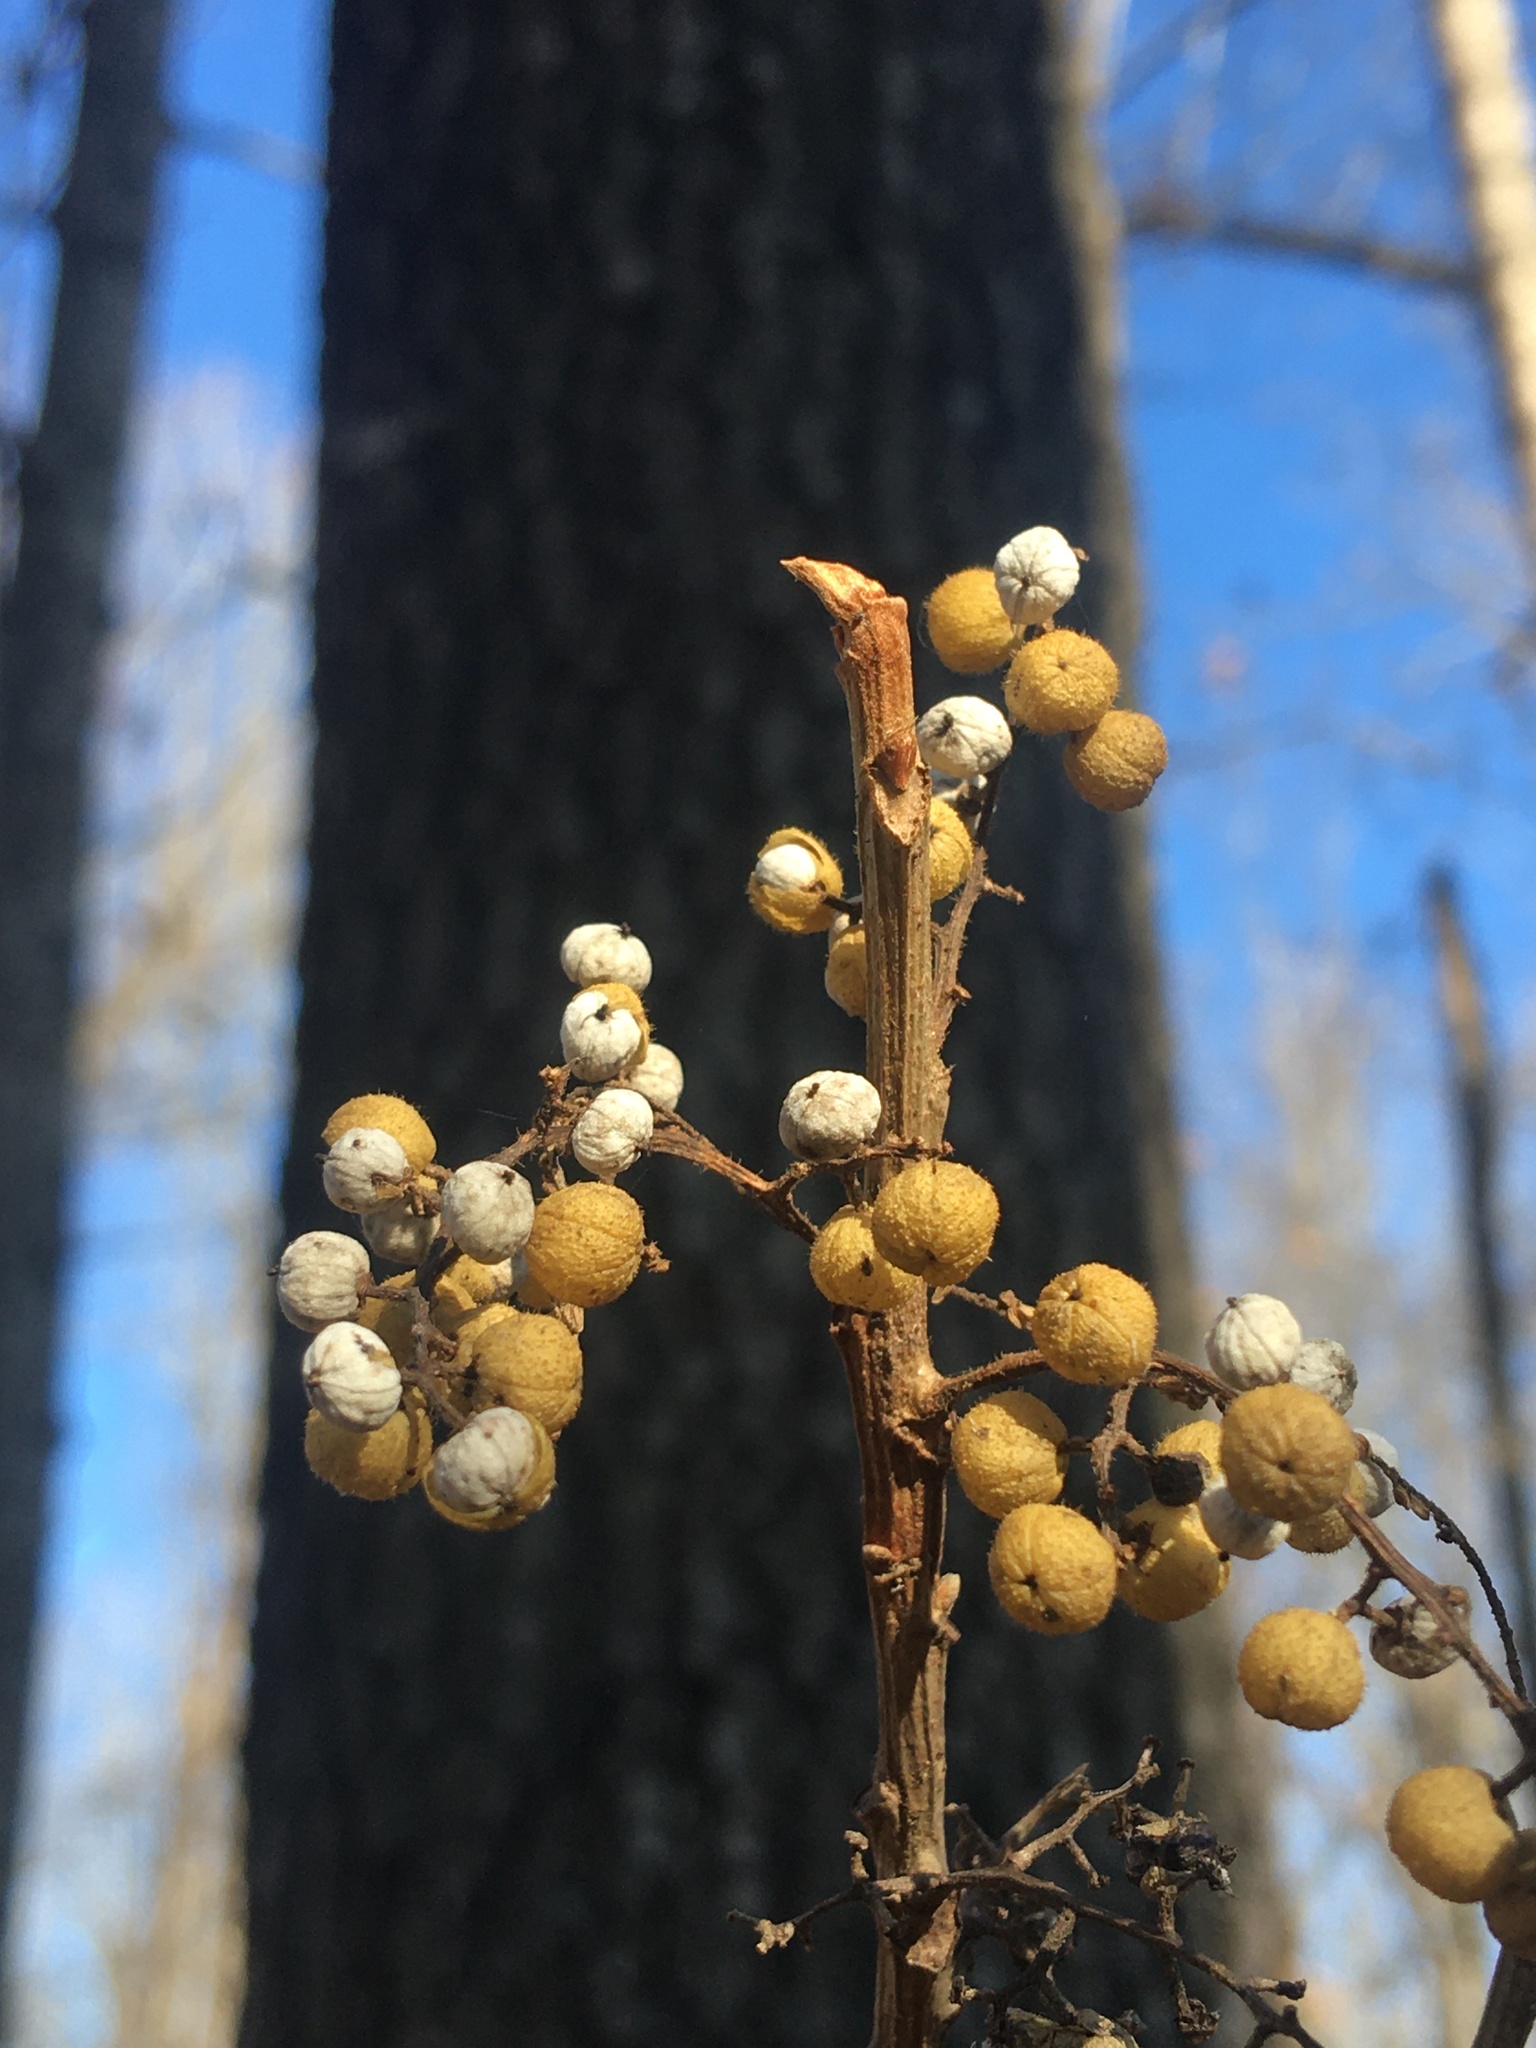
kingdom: Plantae
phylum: Tracheophyta
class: Magnoliopsida
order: Sapindales
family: Anacardiaceae
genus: Toxicodendron
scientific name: Toxicodendron radicans
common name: Poison ivy
